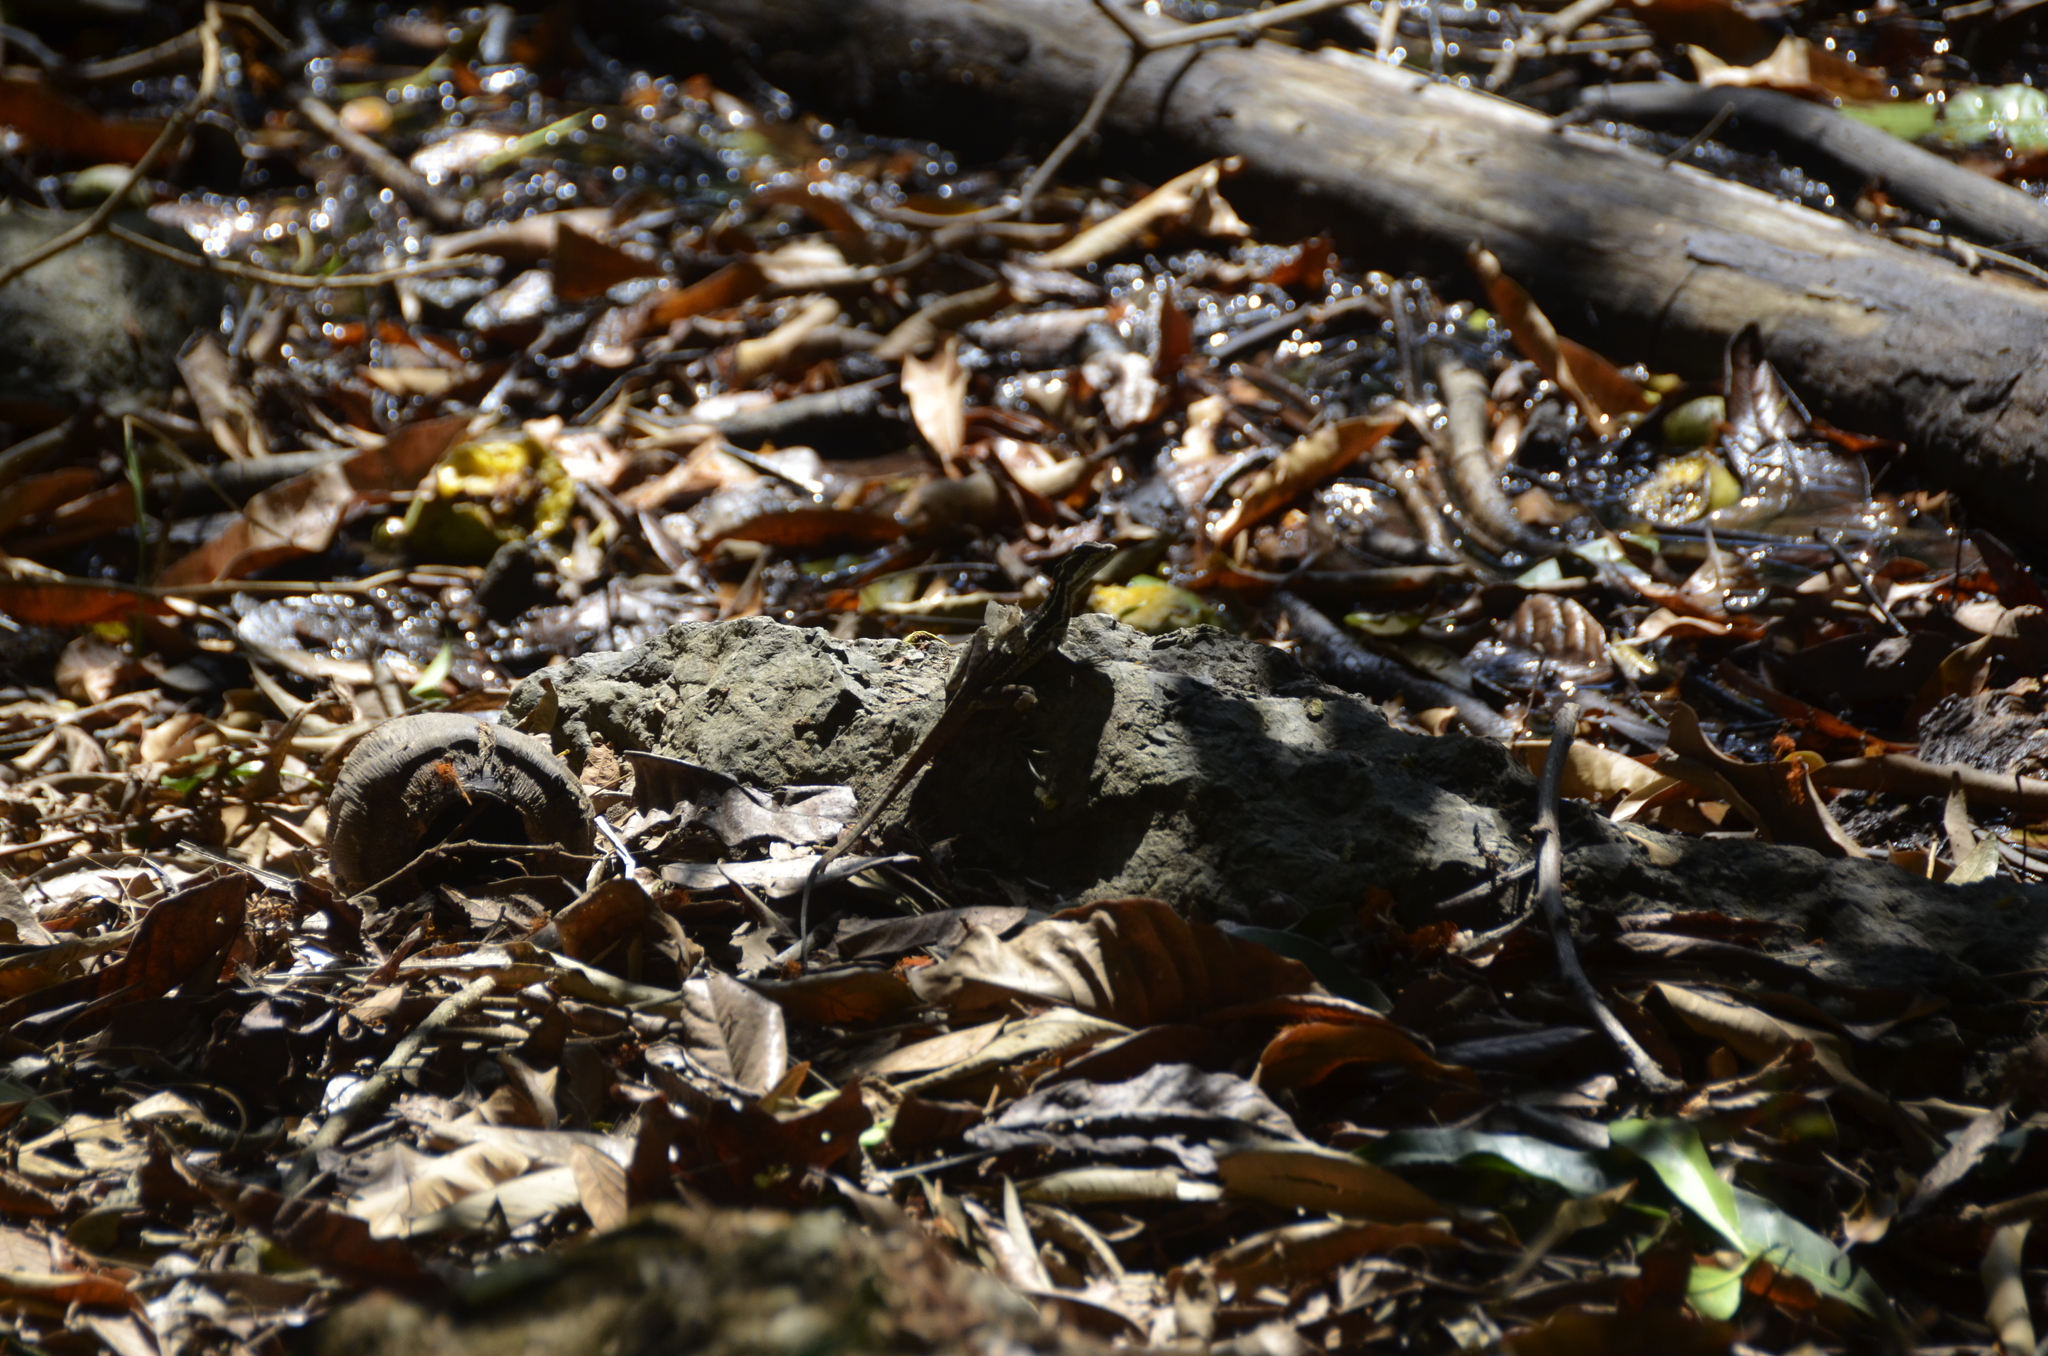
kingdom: Animalia
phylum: Chordata
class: Squamata
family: Corytophanidae
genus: Basiliscus
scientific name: Basiliscus basiliscus
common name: Common basilisk
